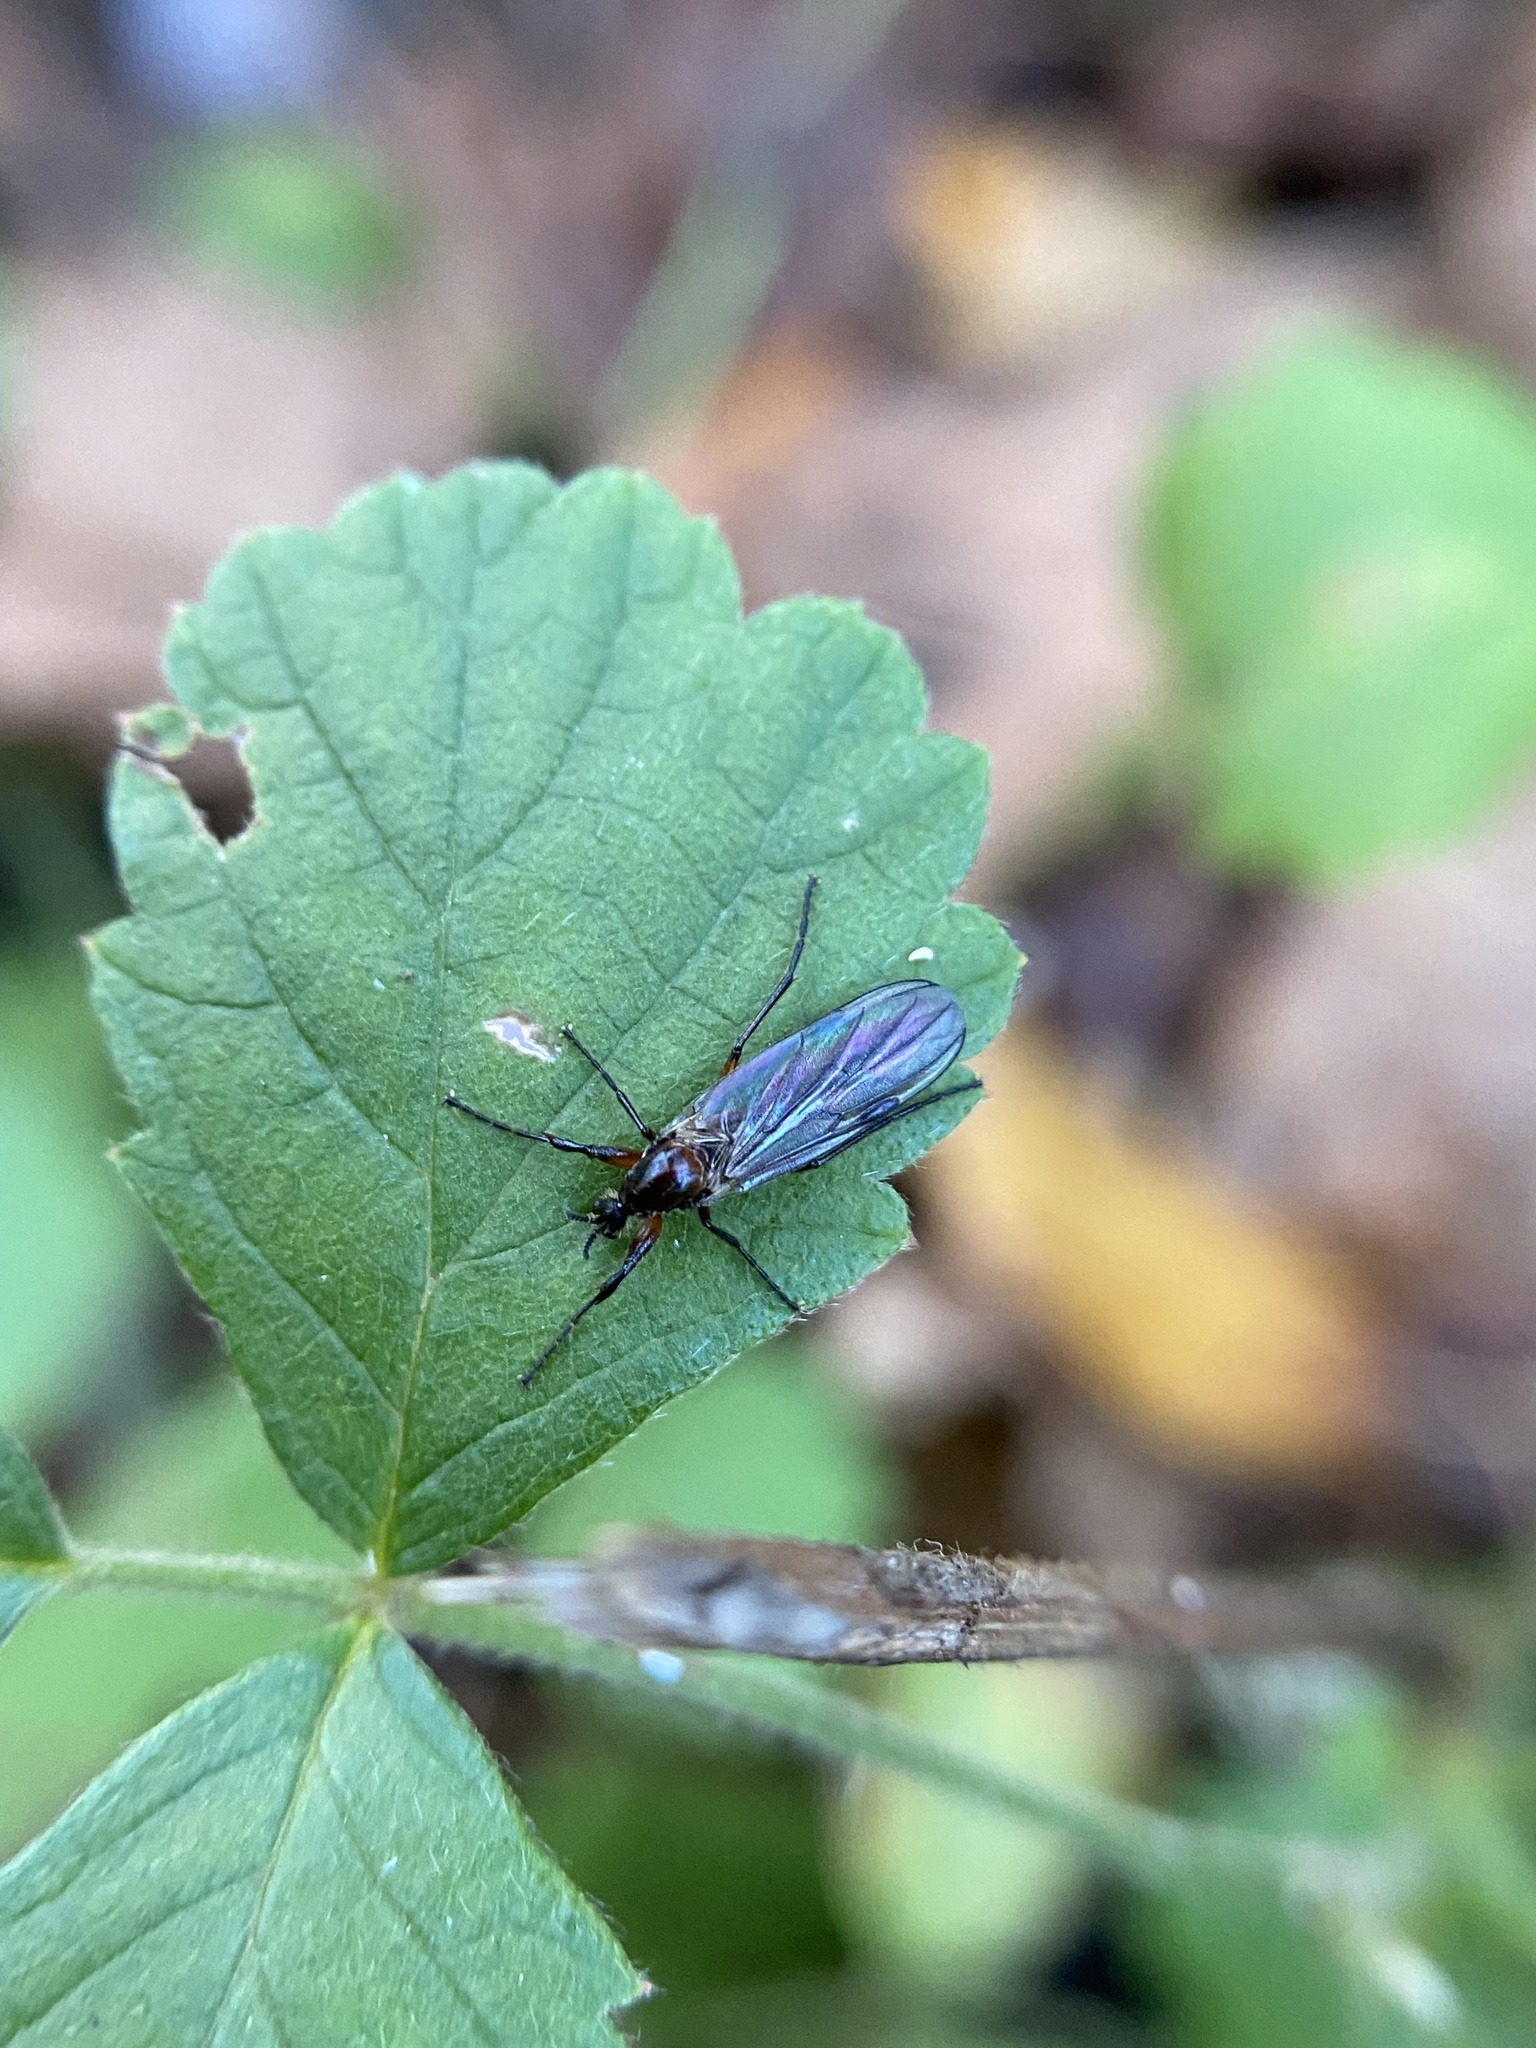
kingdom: Animalia
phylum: Arthropoda
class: Insecta
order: Diptera
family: Bibionidae
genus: Bibio
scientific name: Bibio longipes
